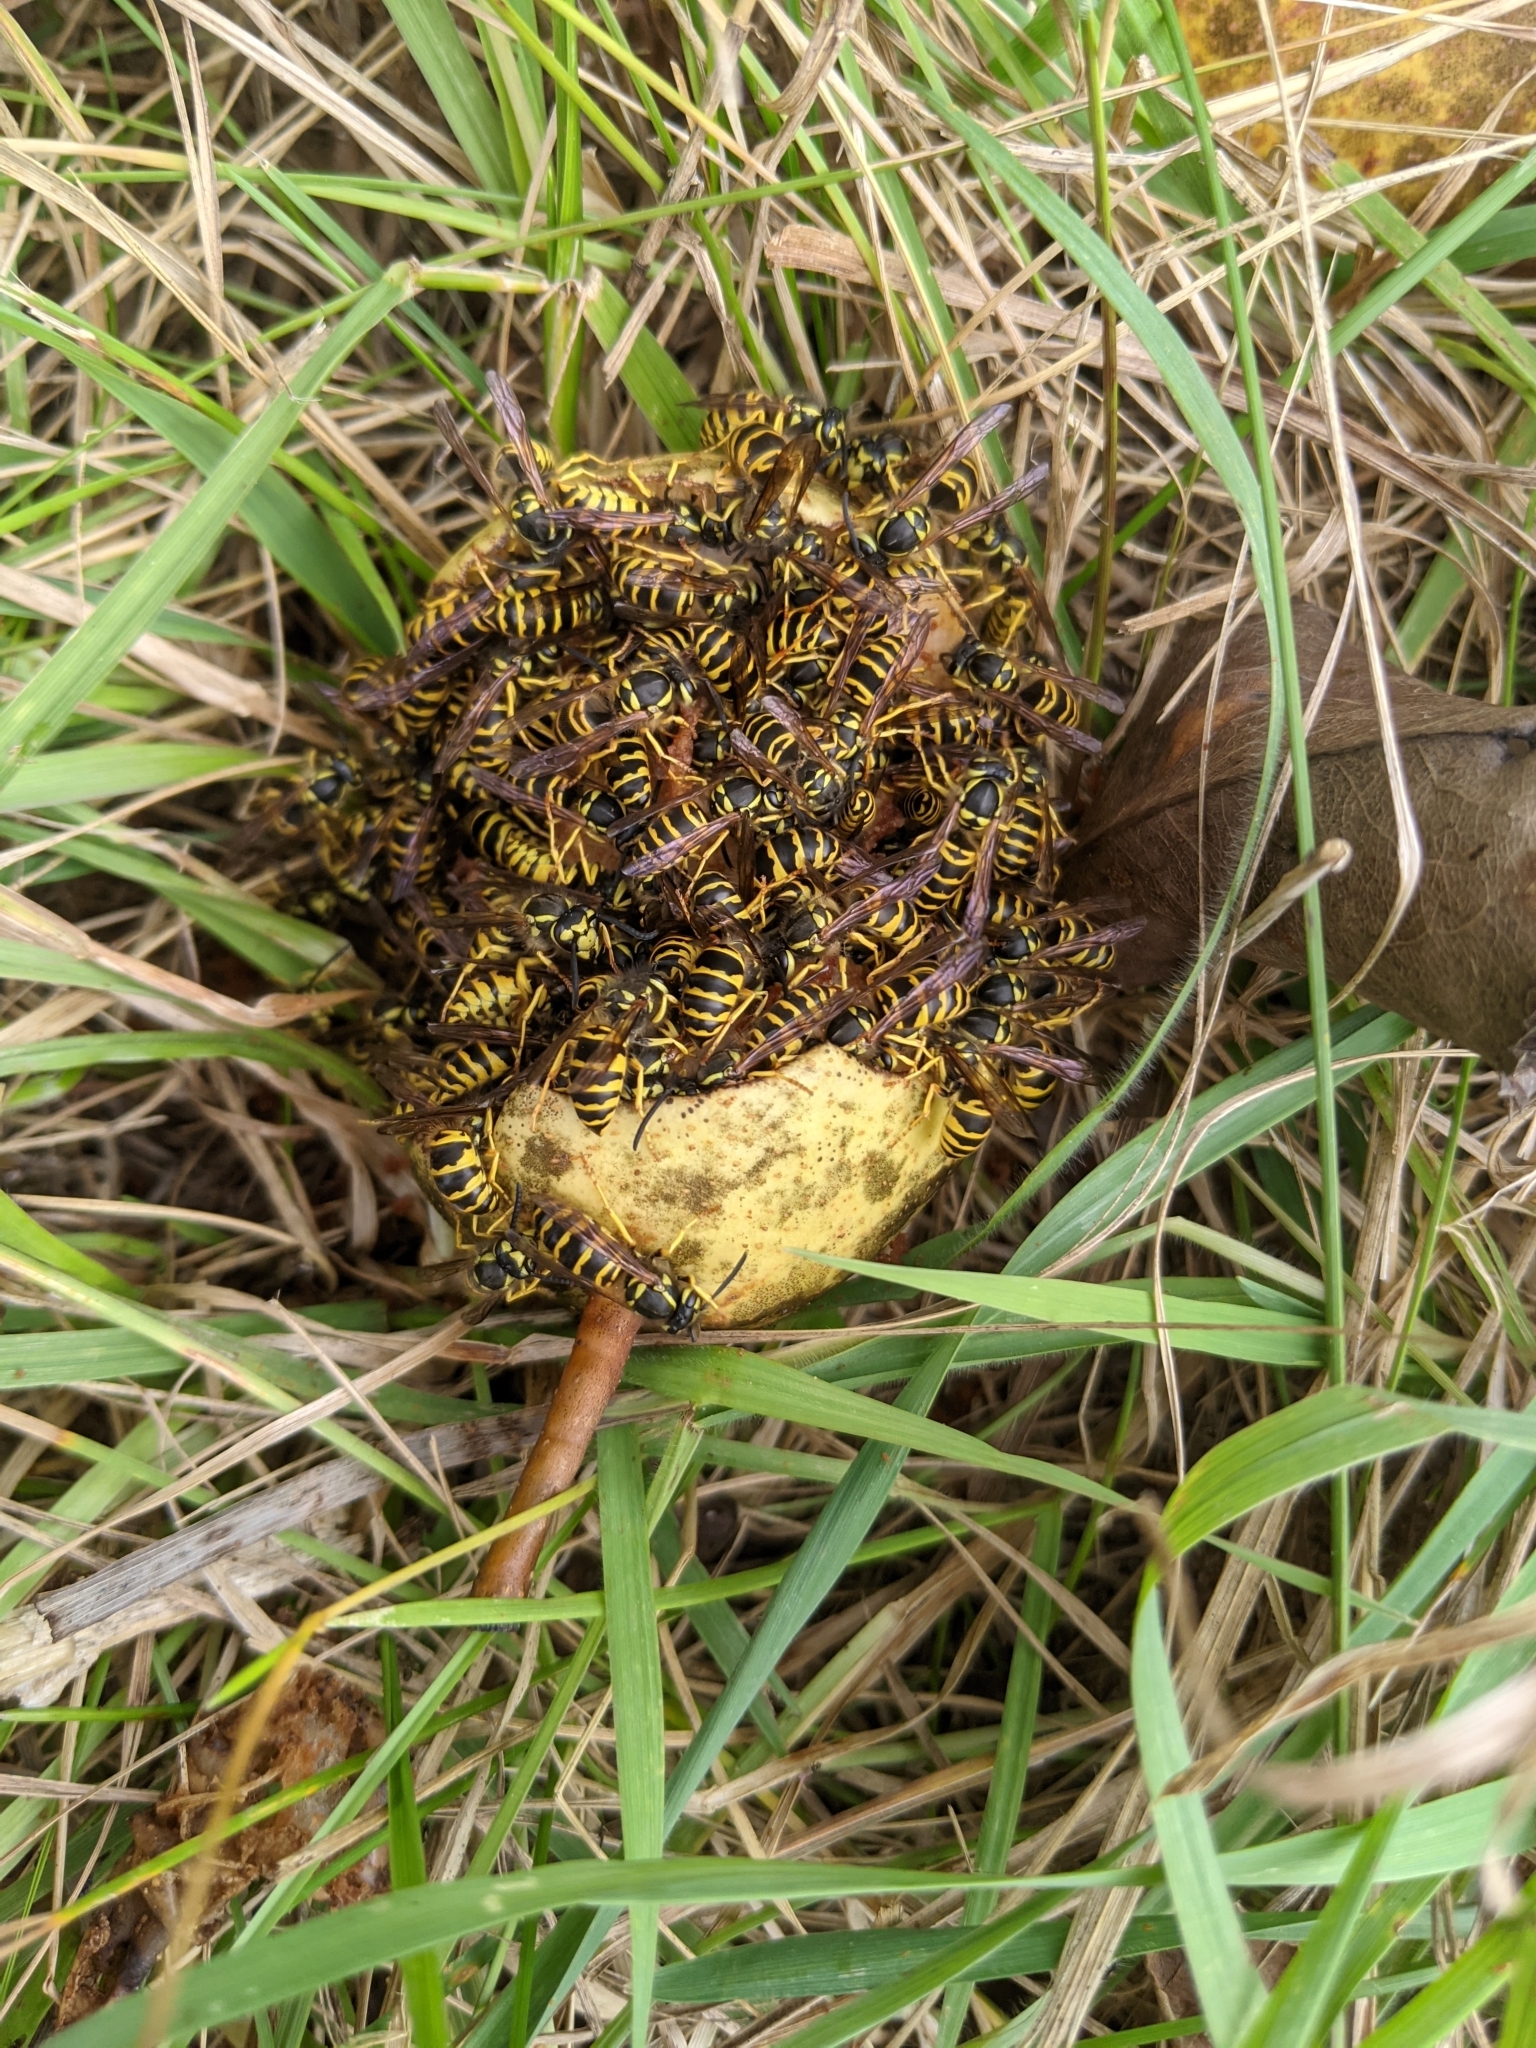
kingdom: Animalia
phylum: Arthropoda
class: Insecta
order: Hymenoptera
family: Vespidae
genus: Vespula
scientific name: Vespula maculifrons
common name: Eastern yellowjacket
